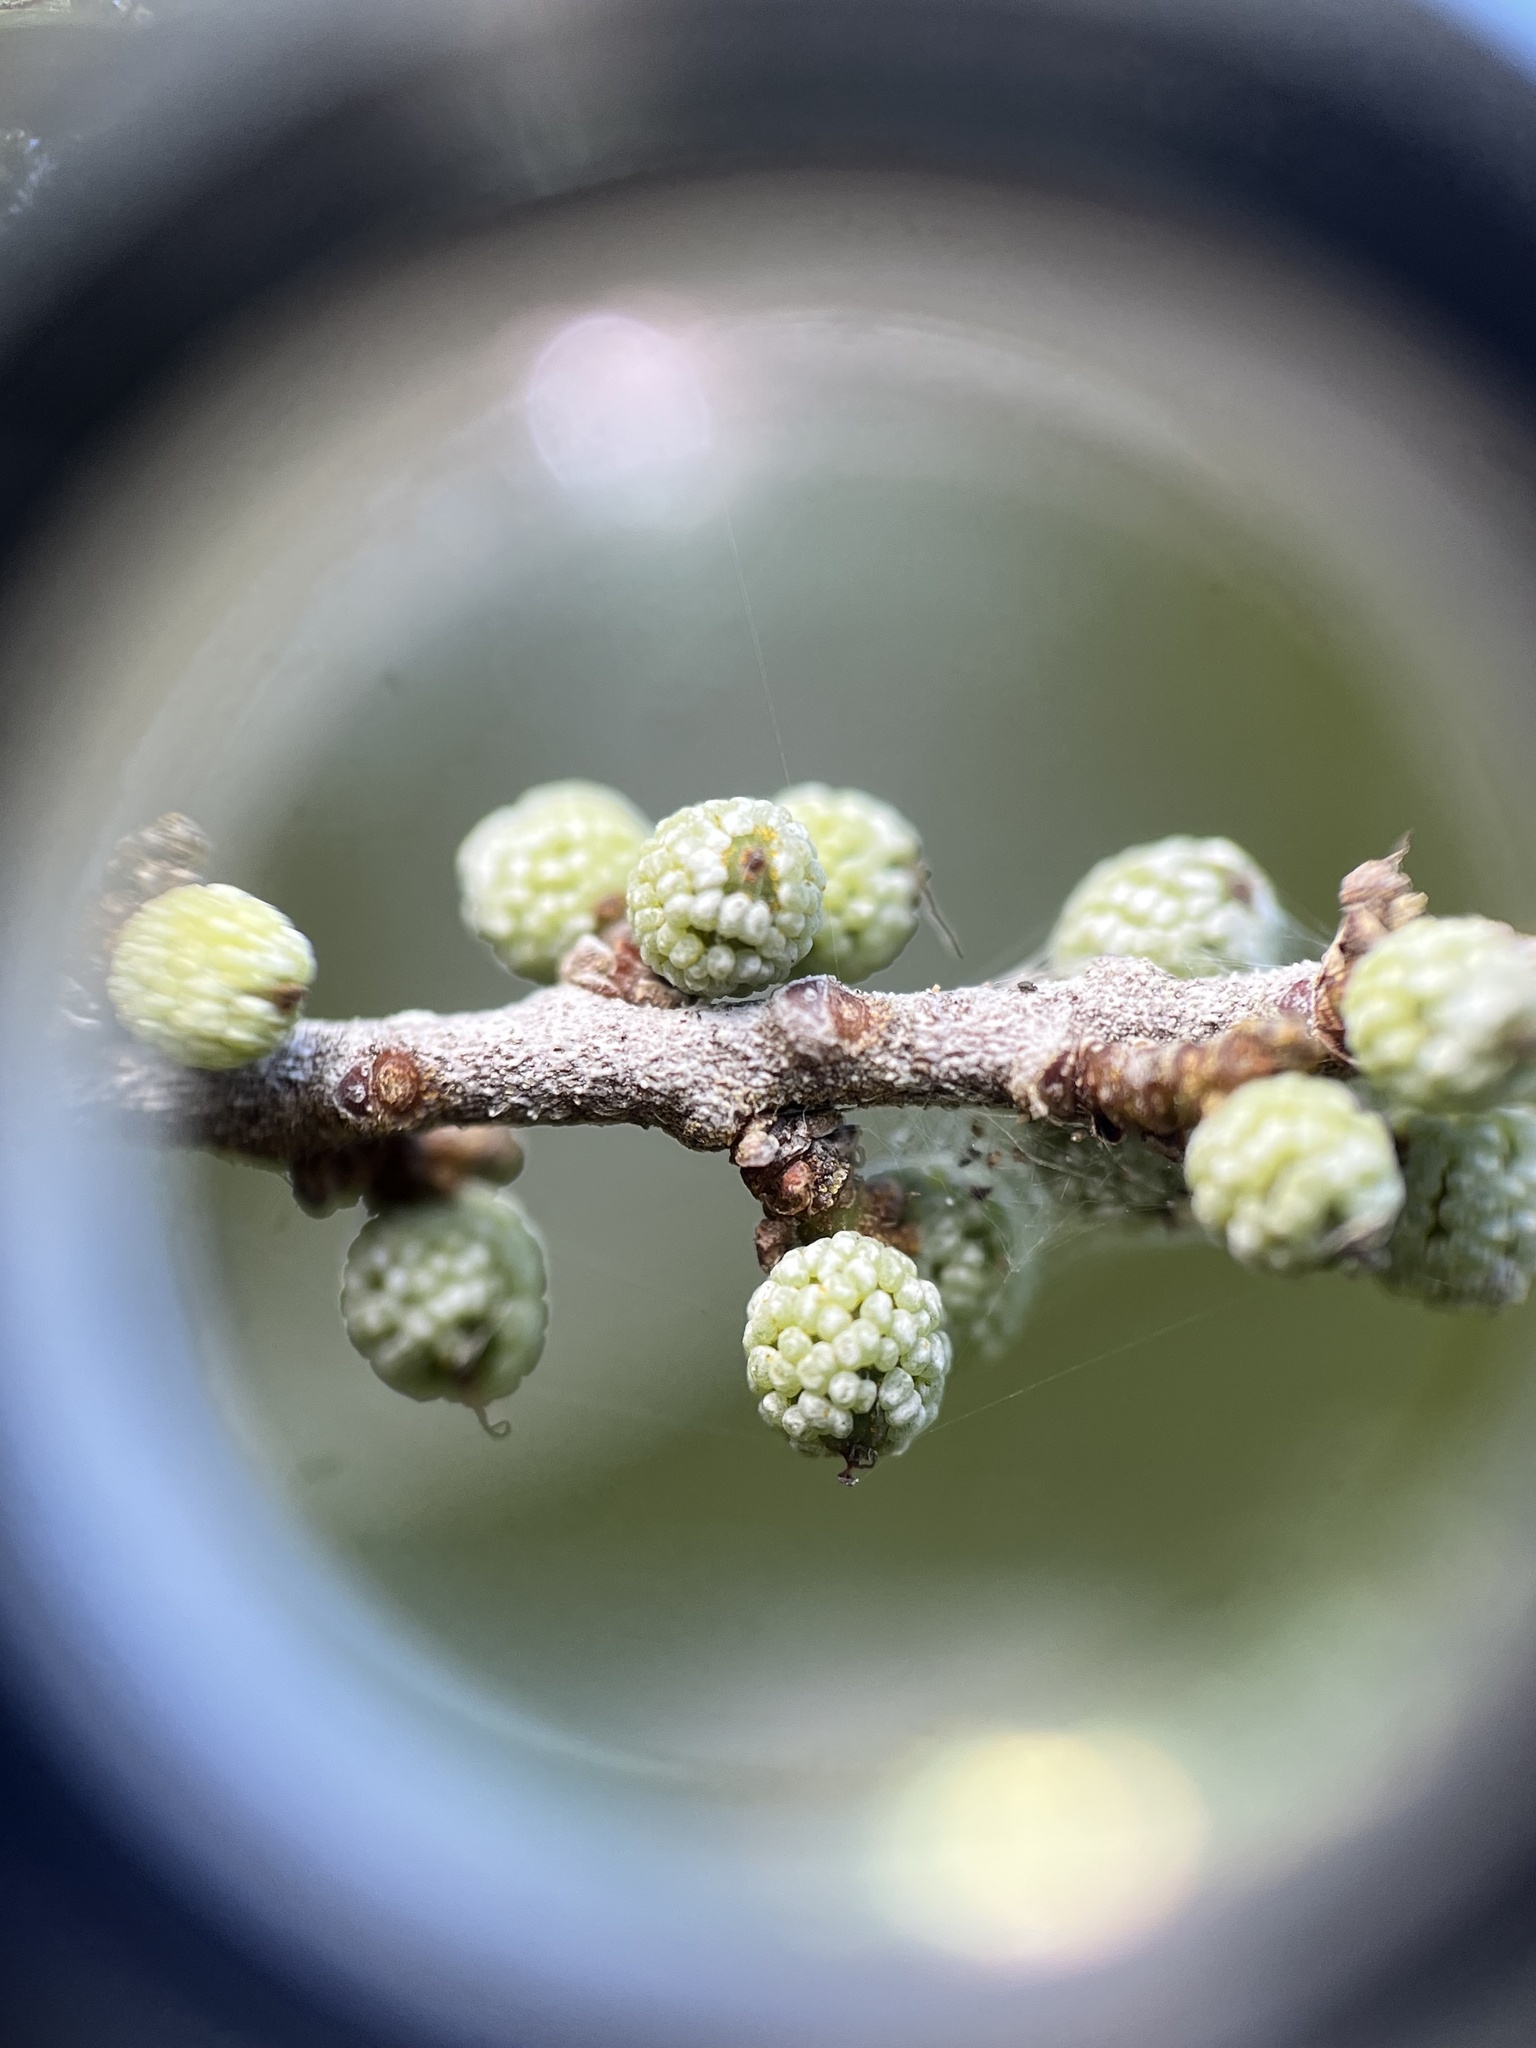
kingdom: Plantae
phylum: Tracheophyta
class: Magnoliopsida
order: Fagales
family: Myricaceae
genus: Morella
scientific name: Morella cerifera
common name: Wax myrtle
